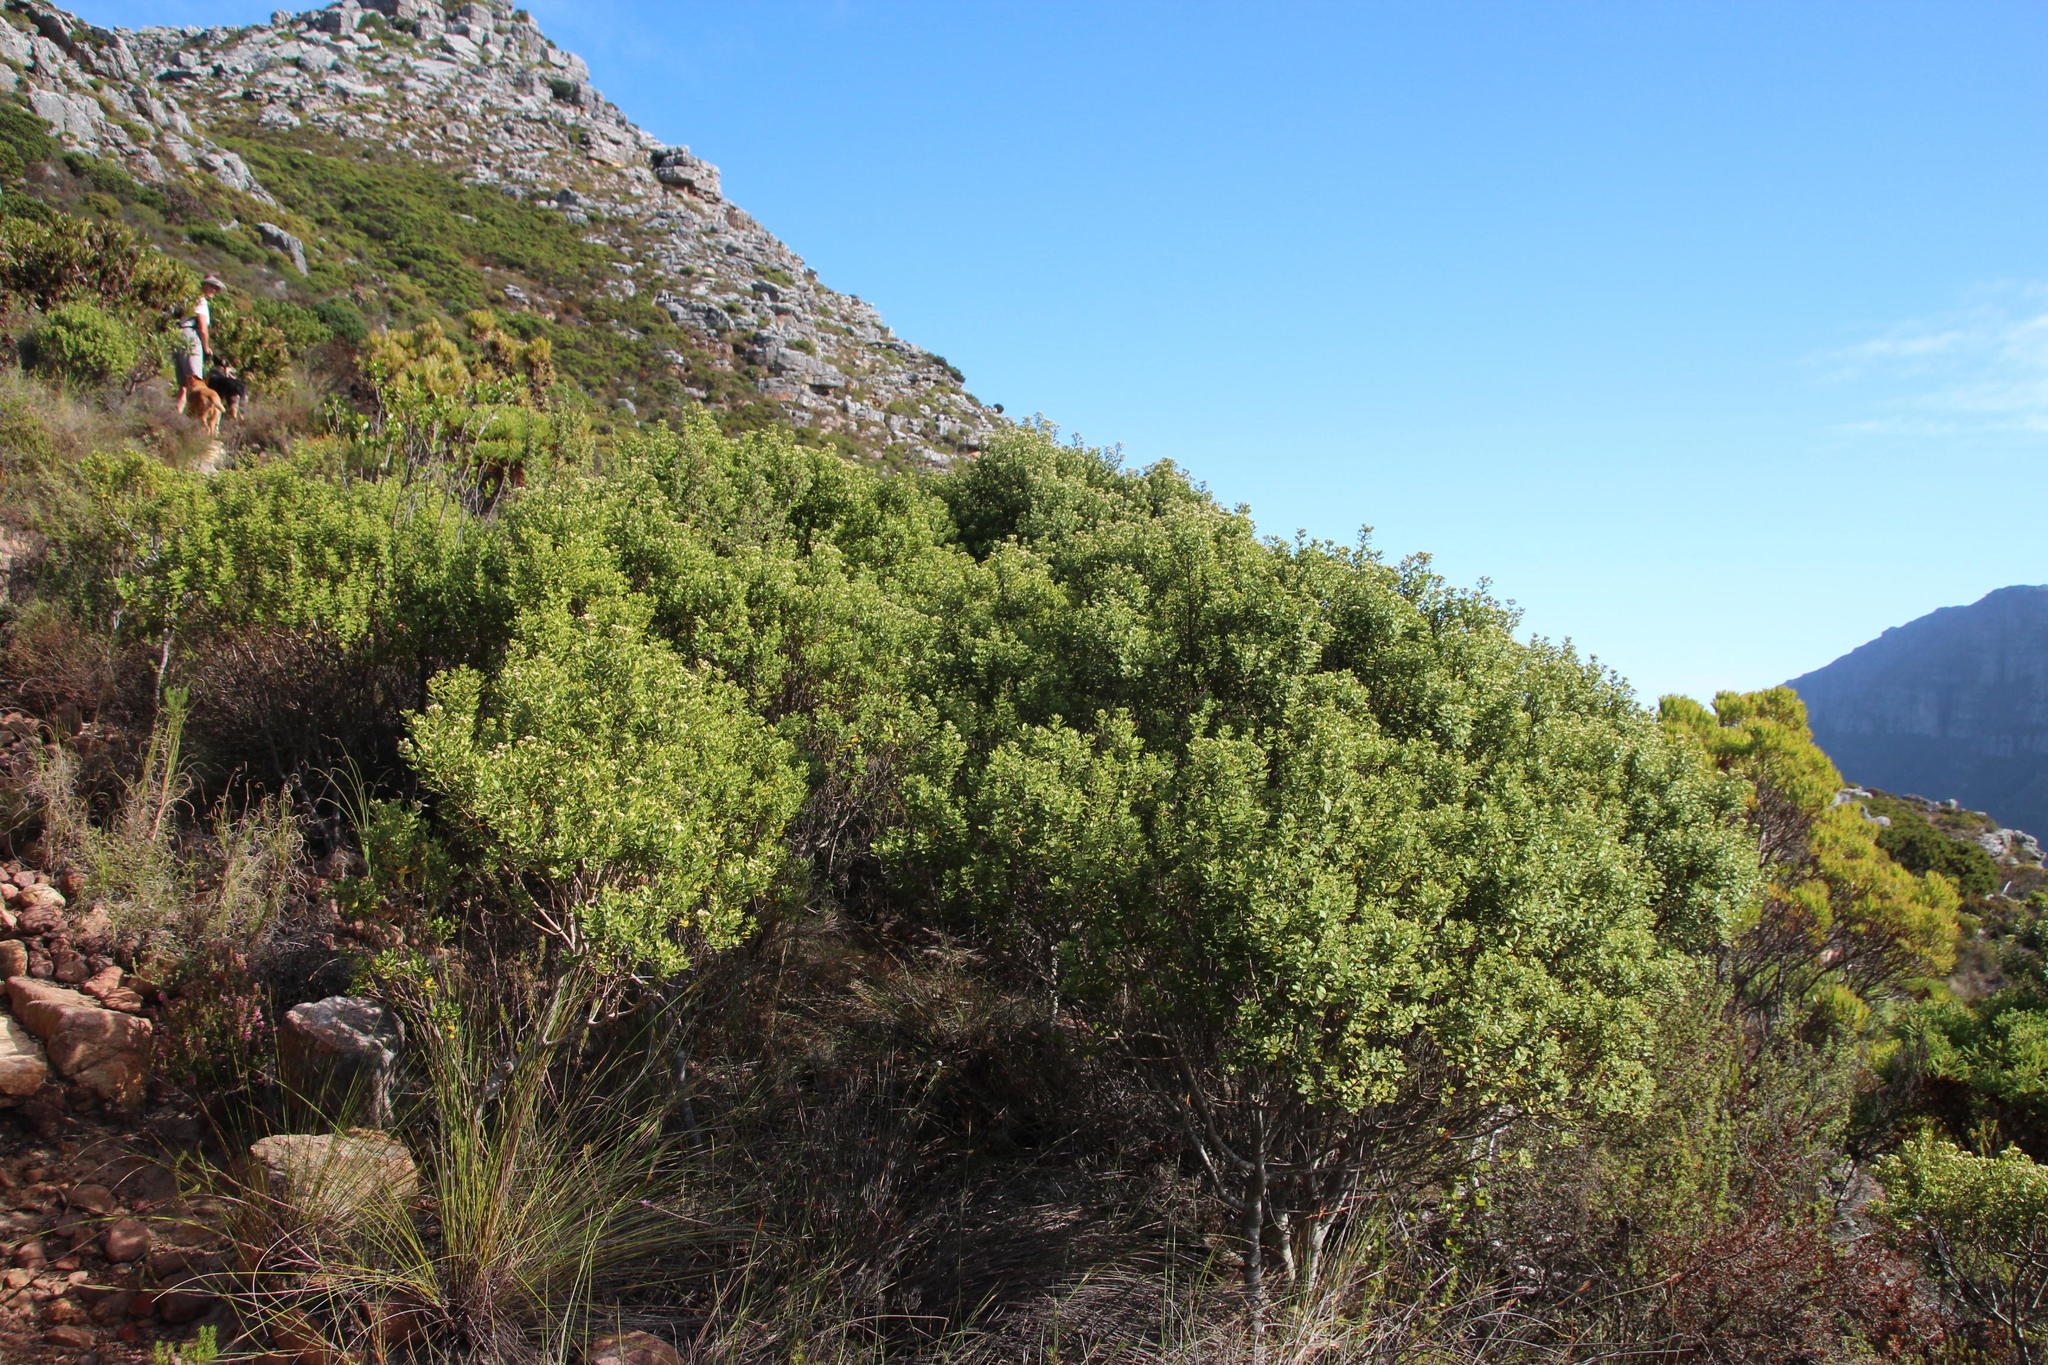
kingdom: Plantae
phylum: Tracheophyta
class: Magnoliopsida
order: Rosales
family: Rhamnaceae
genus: Phylica
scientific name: Phylica buxifolia
